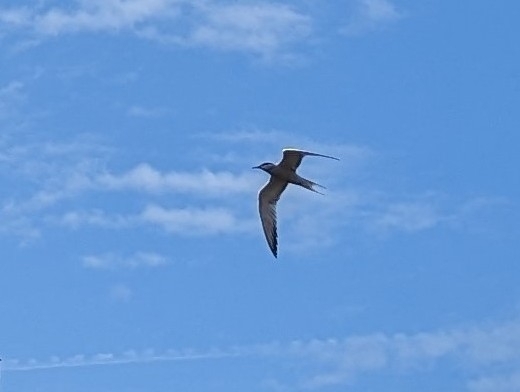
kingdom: Animalia
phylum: Chordata
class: Aves
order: Charadriiformes
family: Laridae
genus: Sterna
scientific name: Sterna hirundo
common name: Common tern
